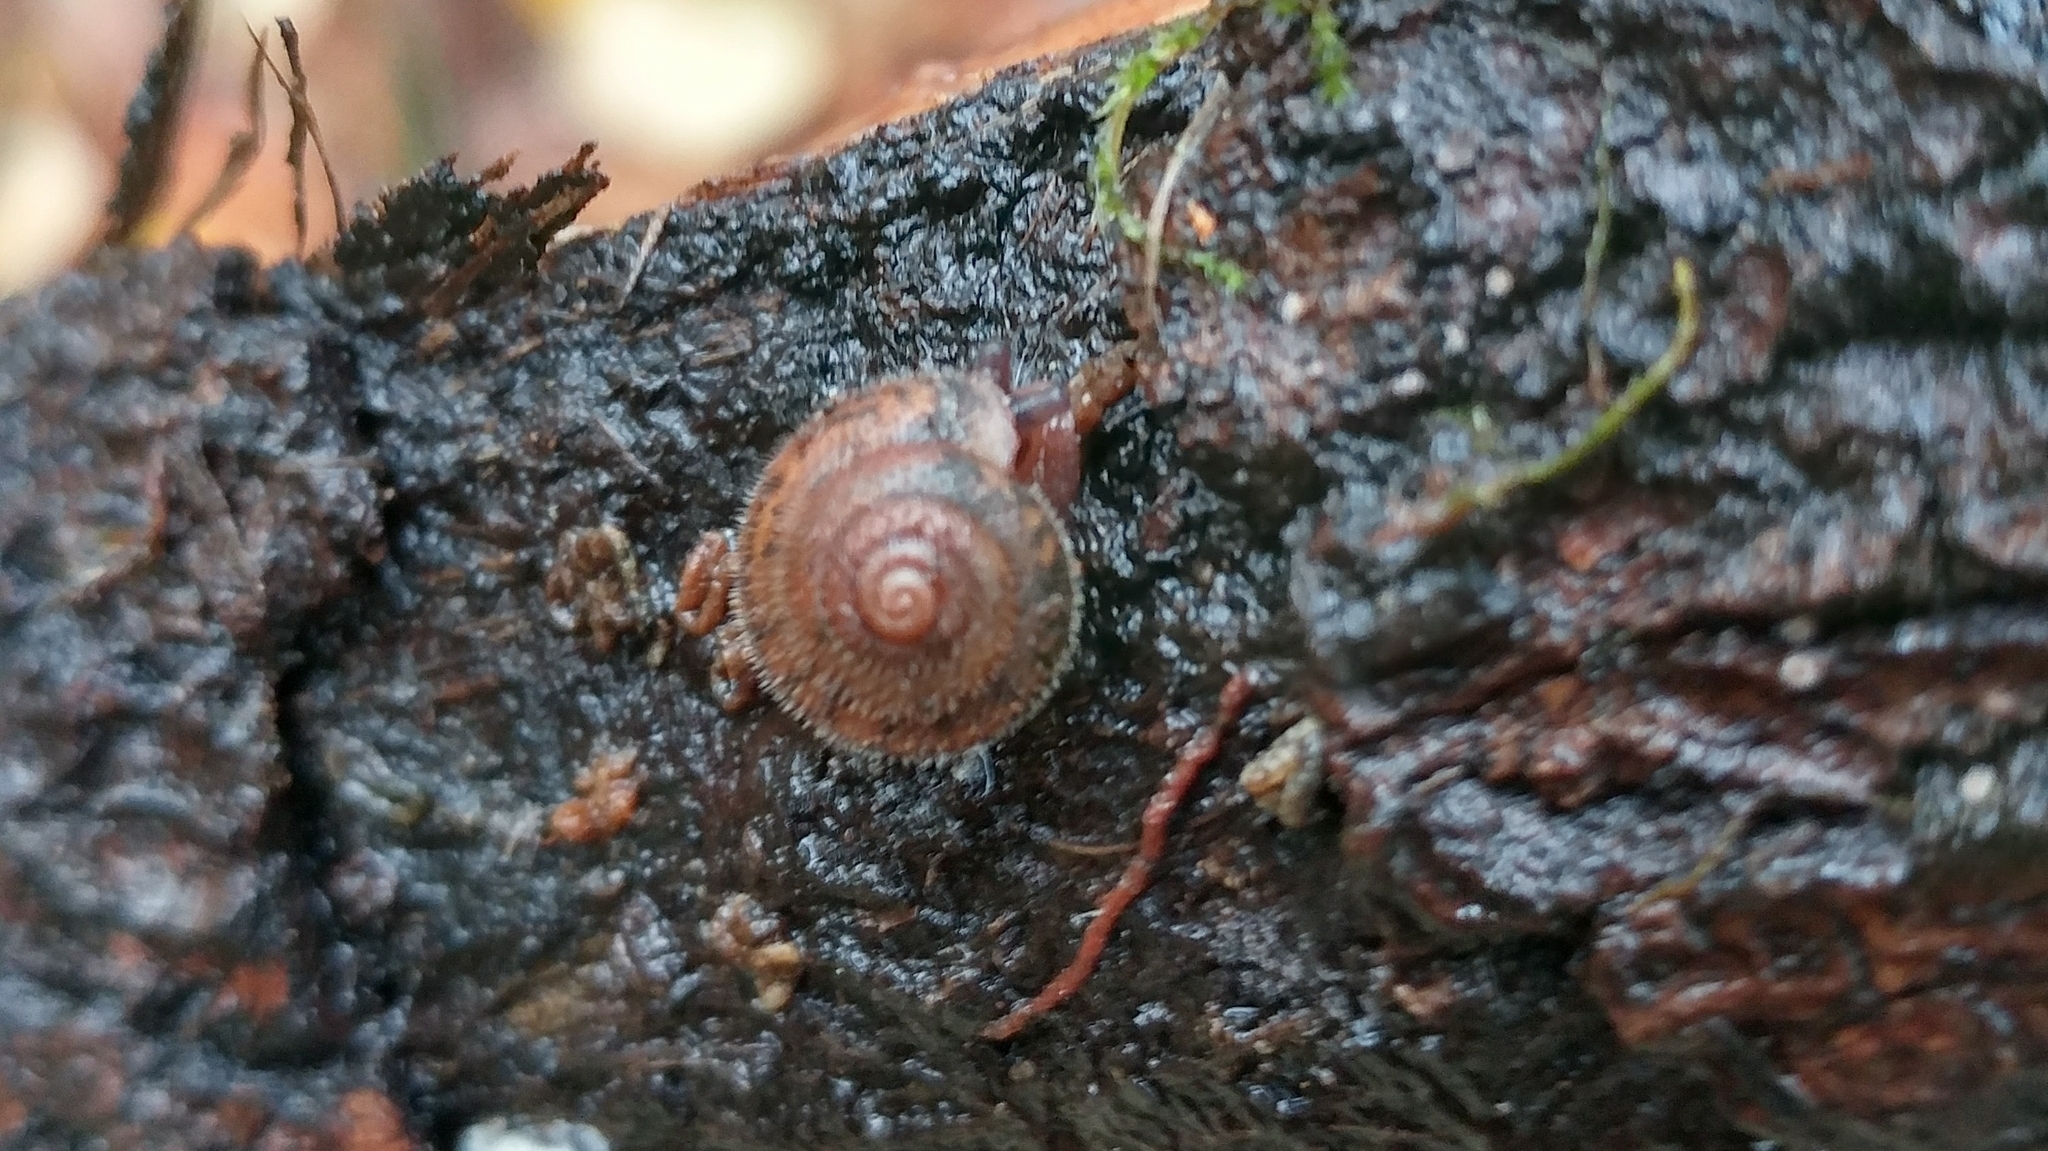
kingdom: Animalia
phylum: Mollusca
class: Gastropoda
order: Stylommatophora
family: Polygyridae
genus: Vespericola
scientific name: Vespericola columbianus
